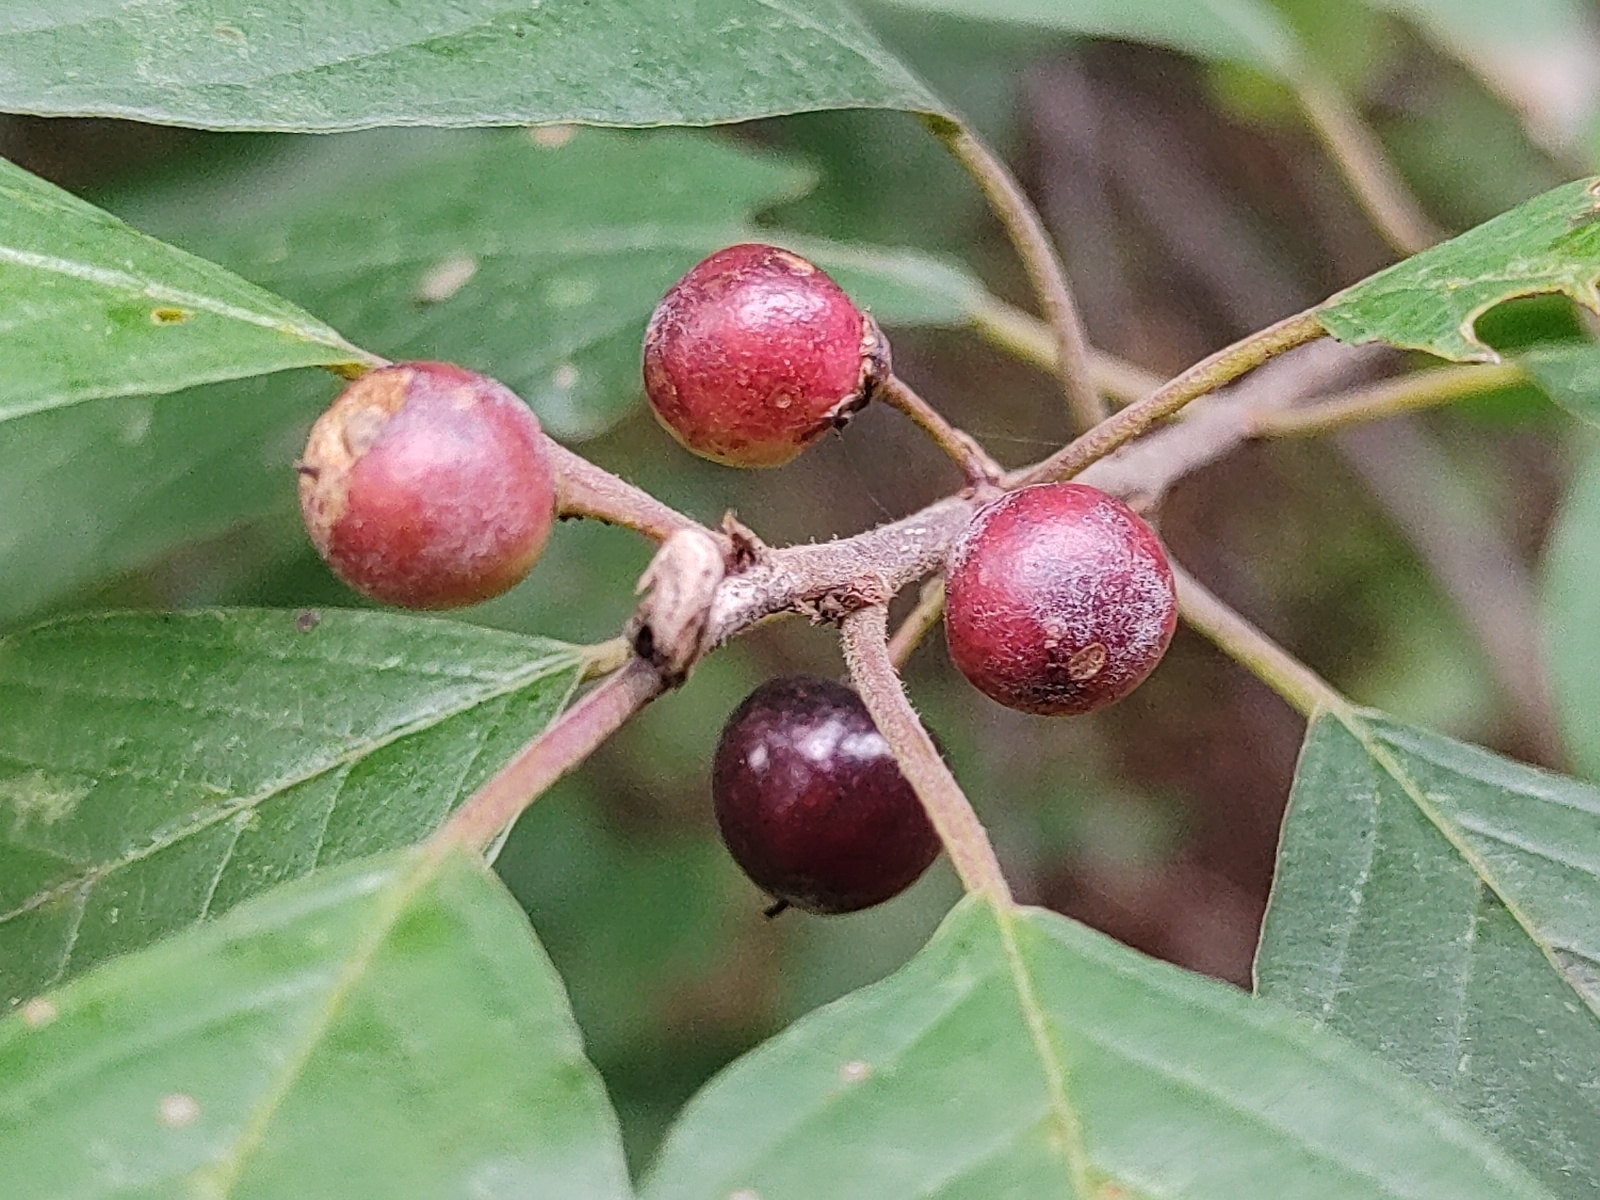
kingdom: Plantae
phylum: Tracheophyta
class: Magnoliopsida
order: Rosales
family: Rhamnaceae
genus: Frangula
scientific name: Frangula alnus
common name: Alder buckthorn
